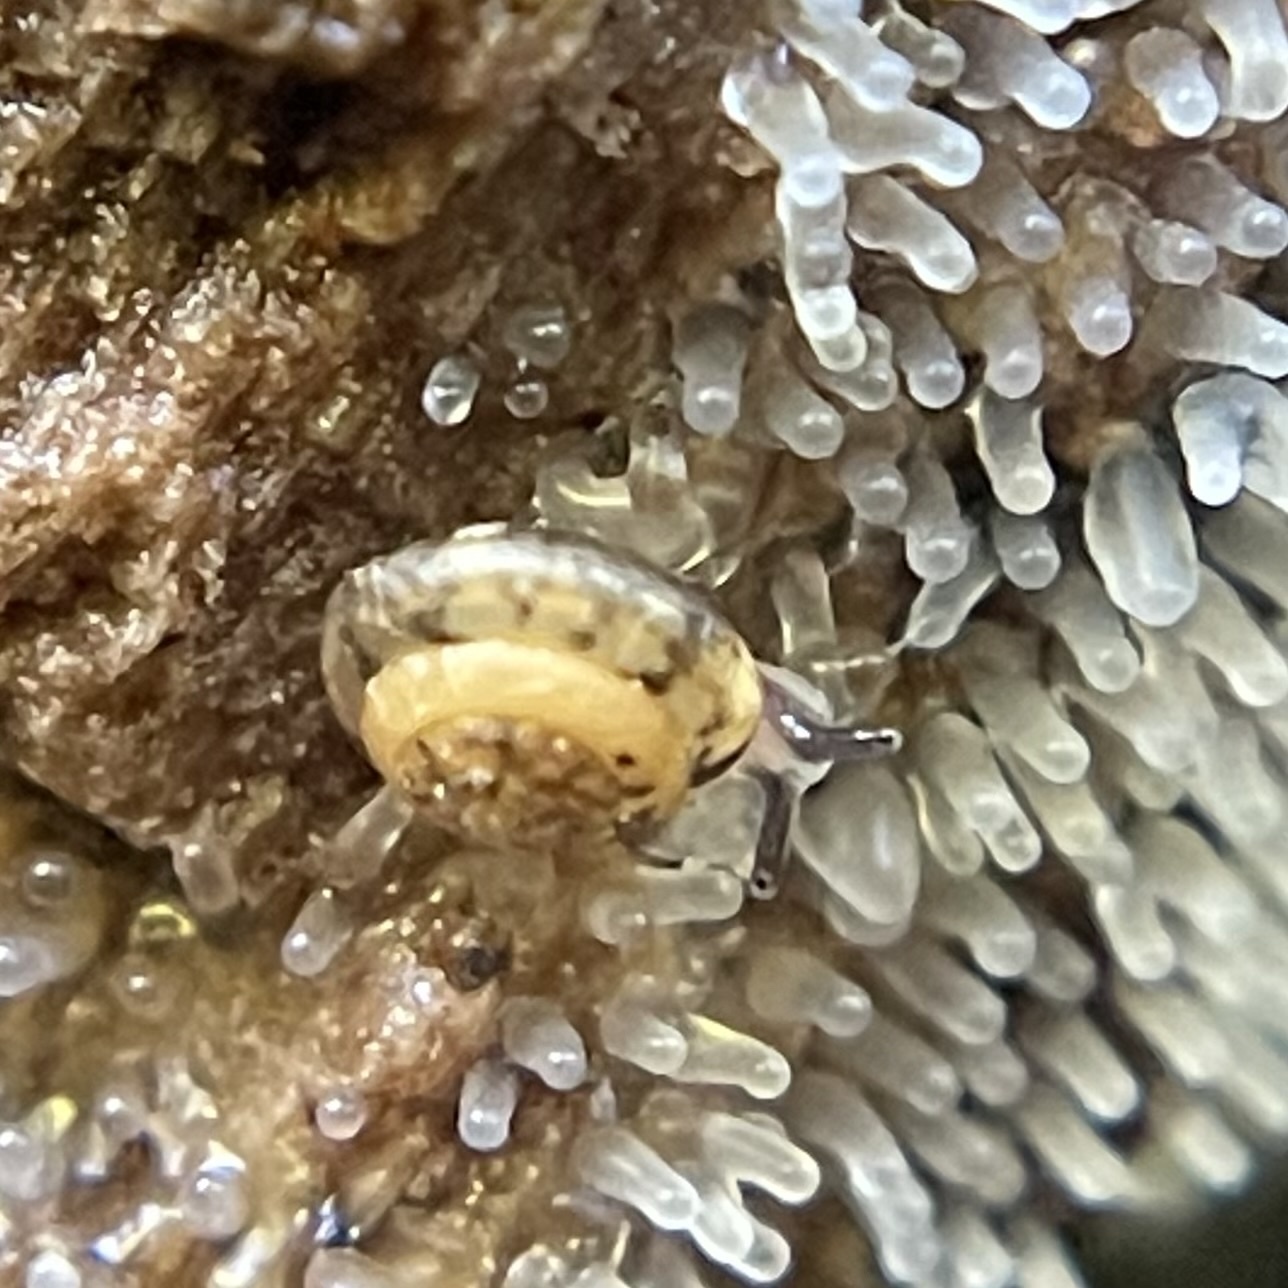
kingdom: Animalia
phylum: Mollusca
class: Gastropoda
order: Stylommatophora
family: Helicarionidae
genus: Ovachlamys
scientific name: Ovachlamys fulgens
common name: Jumping snail
